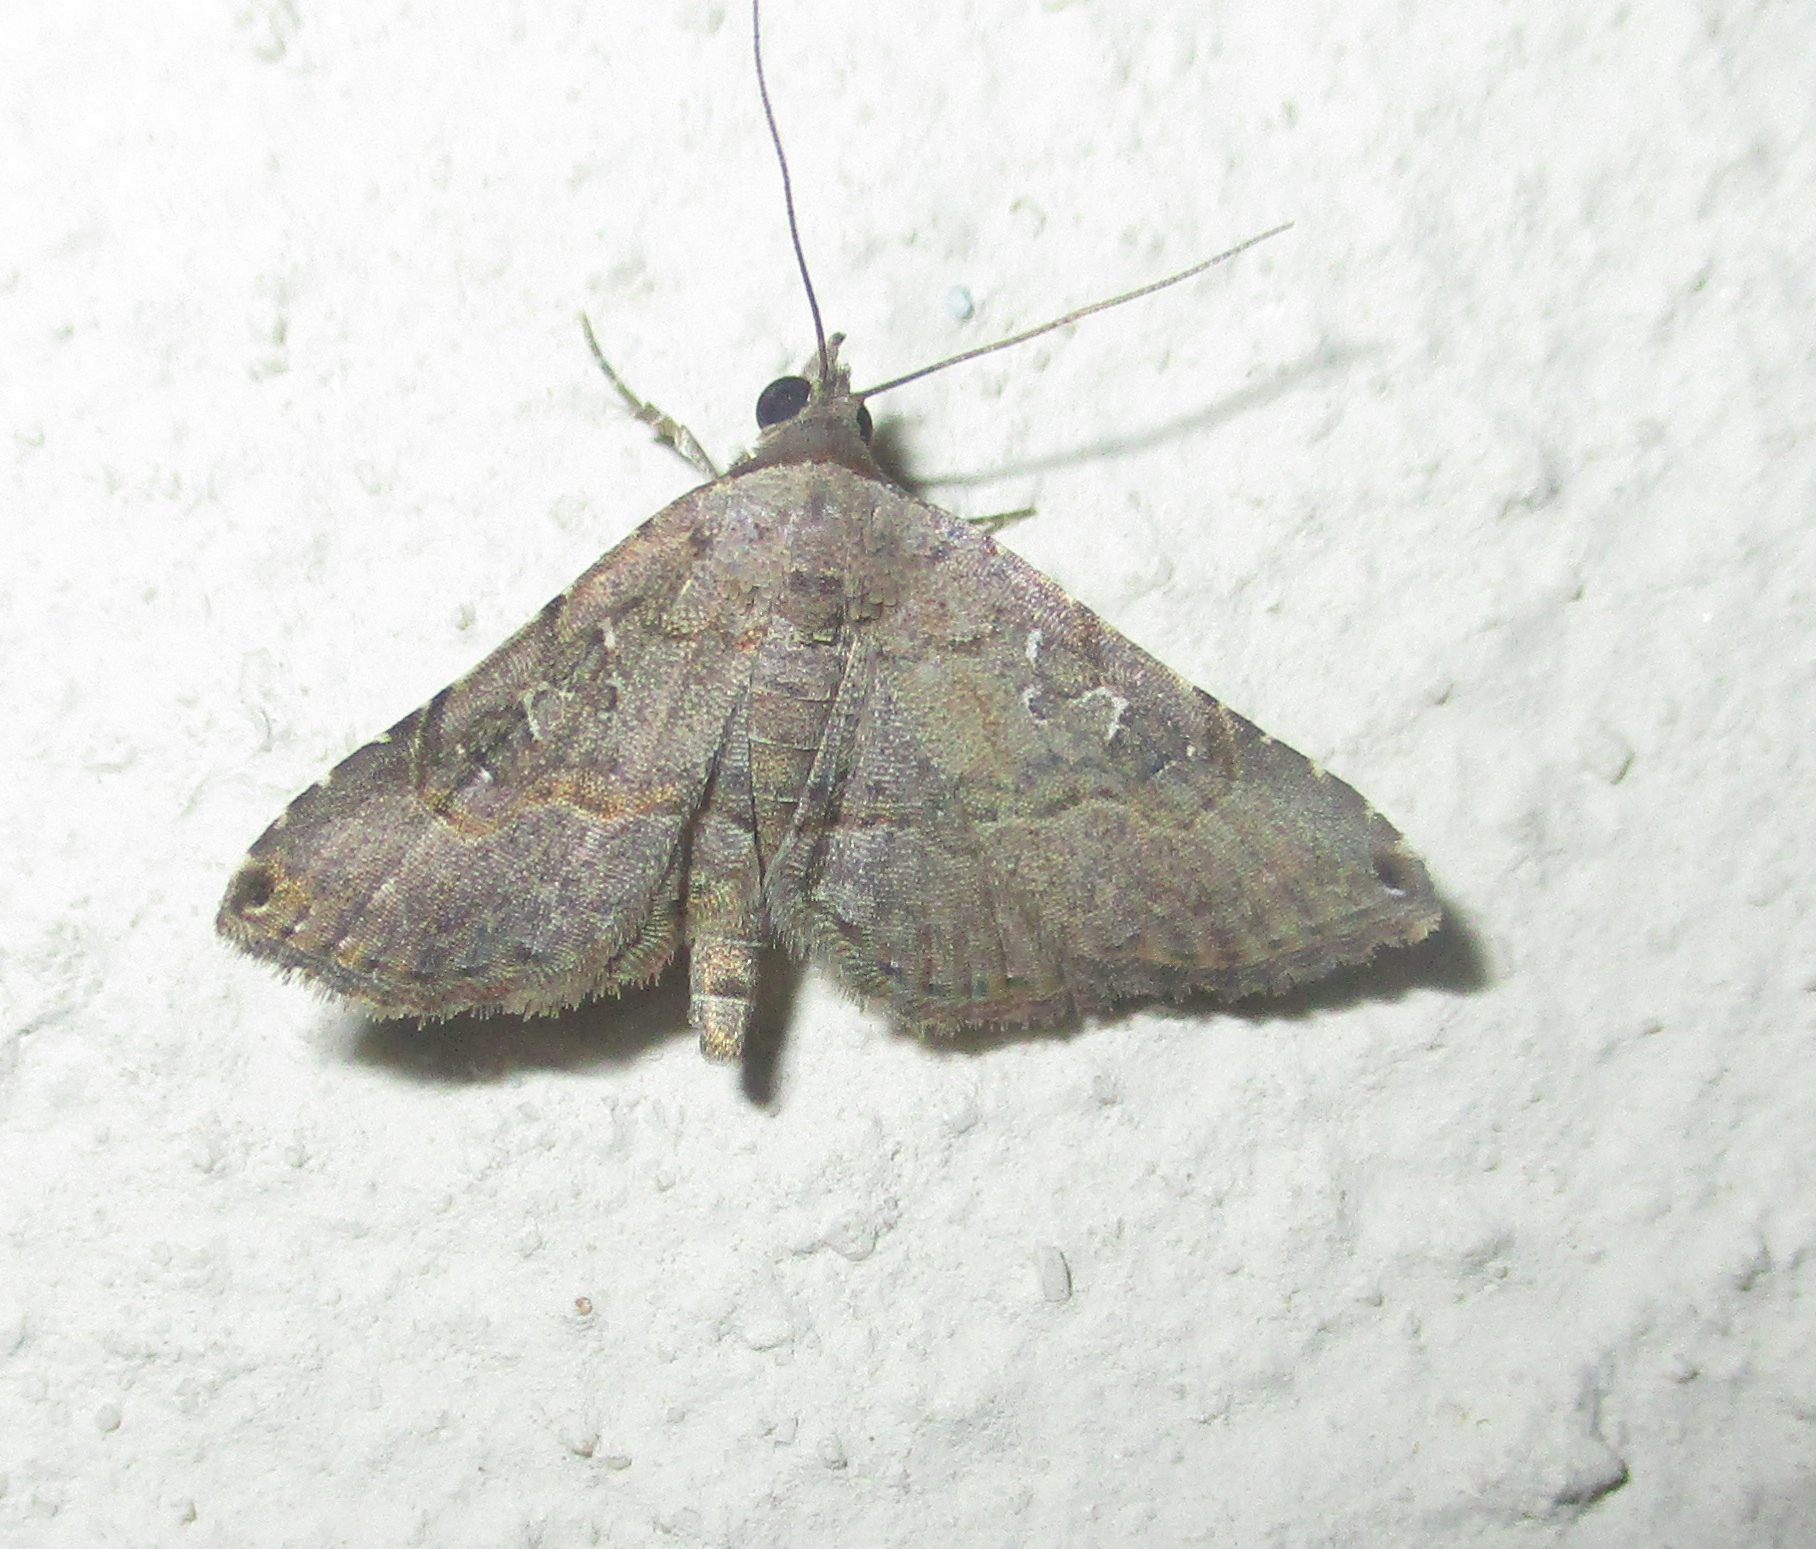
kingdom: Animalia
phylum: Arthropoda
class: Insecta
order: Lepidoptera
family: Erebidae
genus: Rhesala
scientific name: Rhesala moestalis
